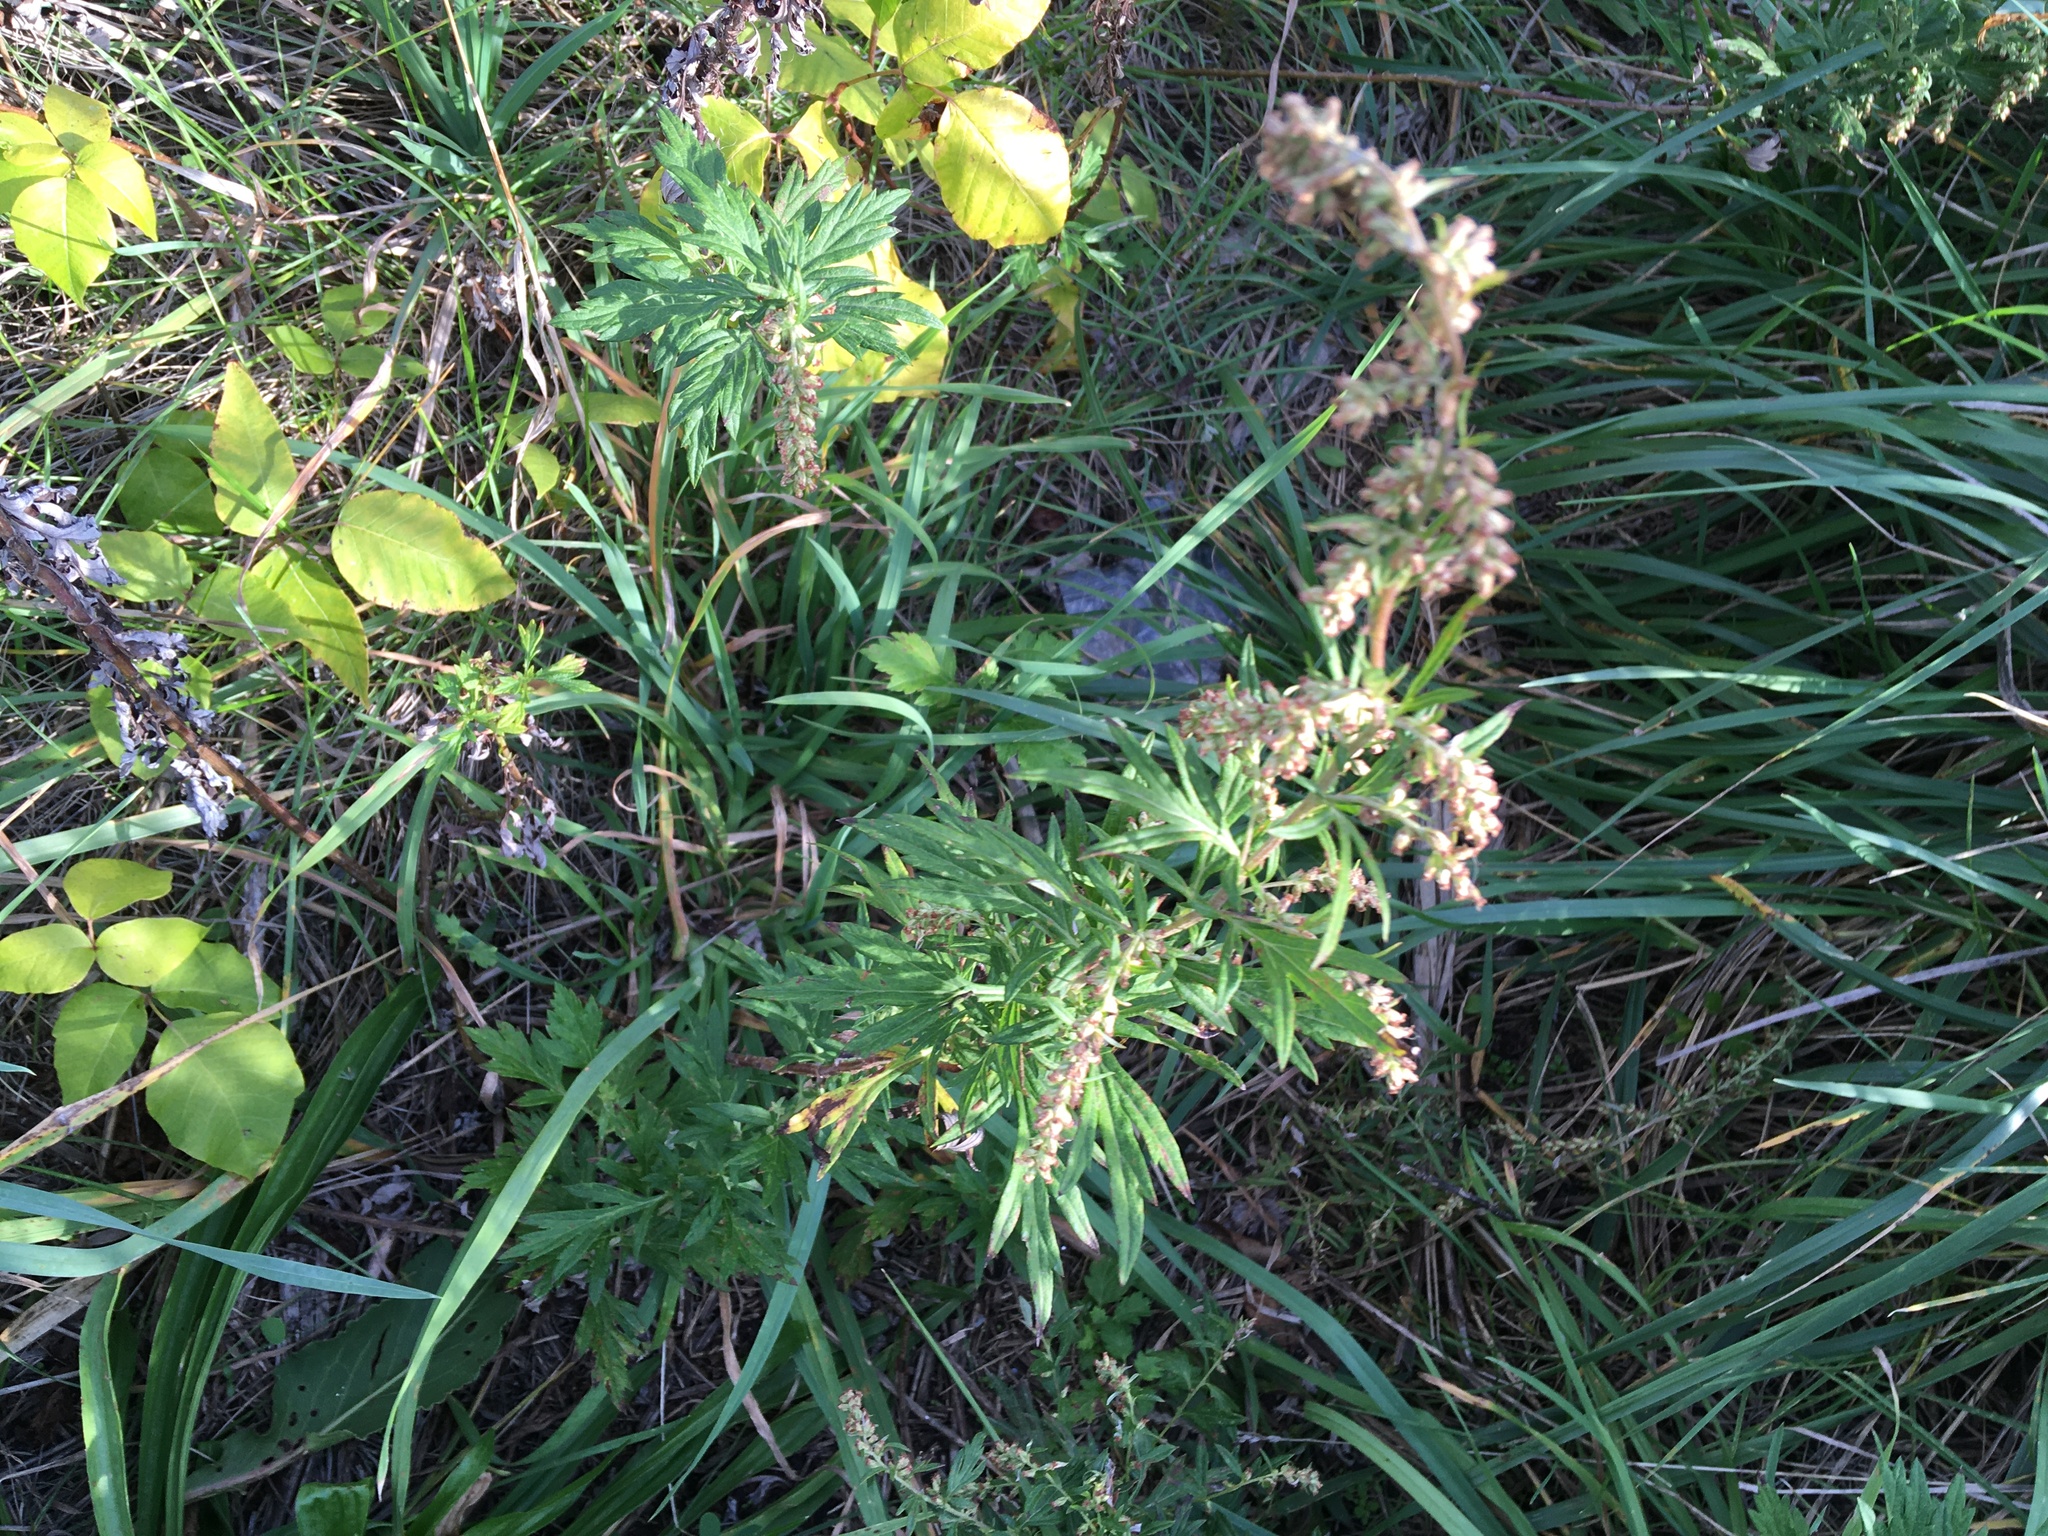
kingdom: Plantae
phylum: Tracheophyta
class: Magnoliopsida
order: Asterales
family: Asteraceae
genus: Artemisia
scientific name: Artemisia vulgaris
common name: Mugwort
